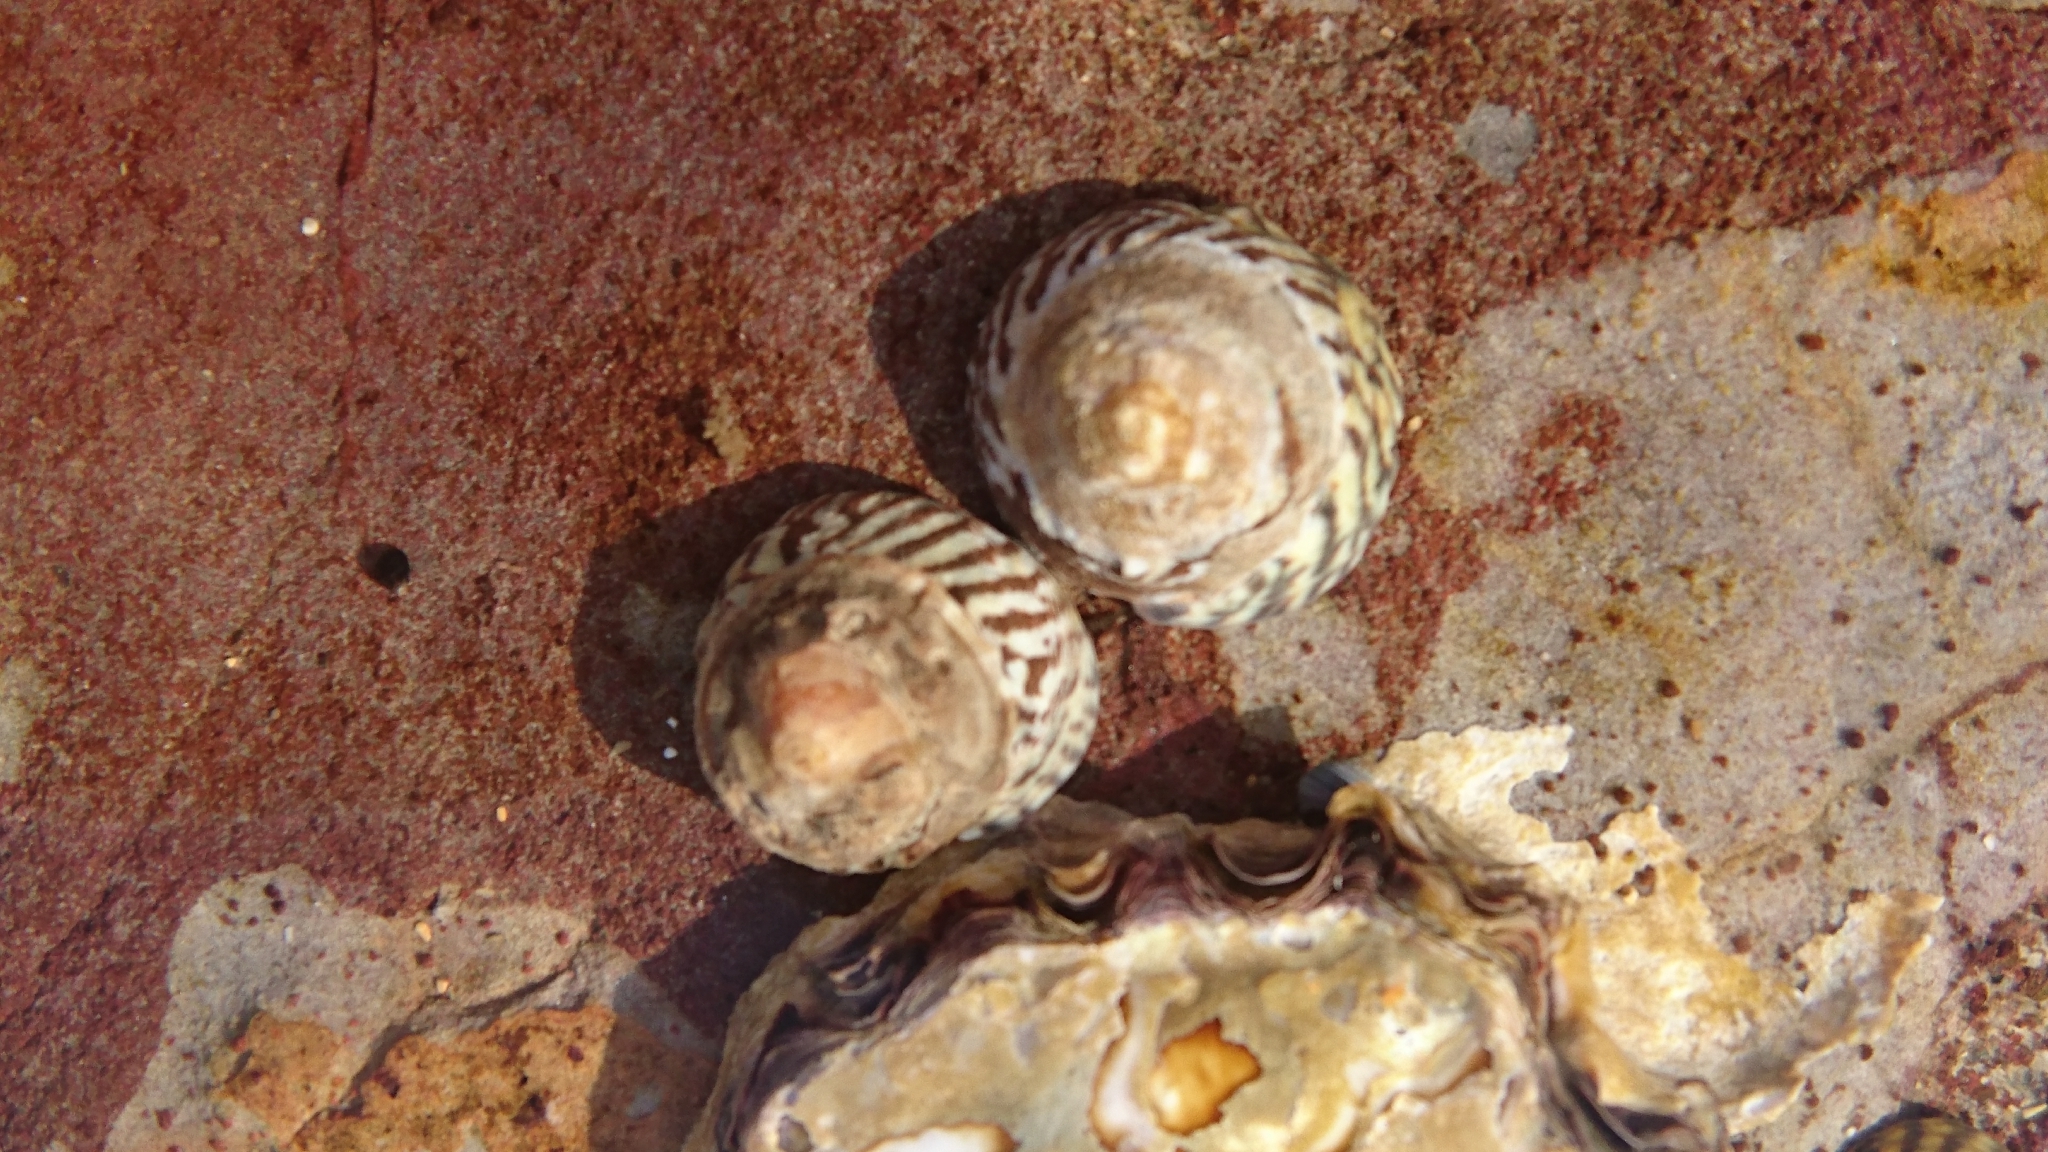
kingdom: Animalia
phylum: Mollusca
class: Gastropoda
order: Littorinimorpha
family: Littorinidae
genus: Bembicium
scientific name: Bembicium nanum
